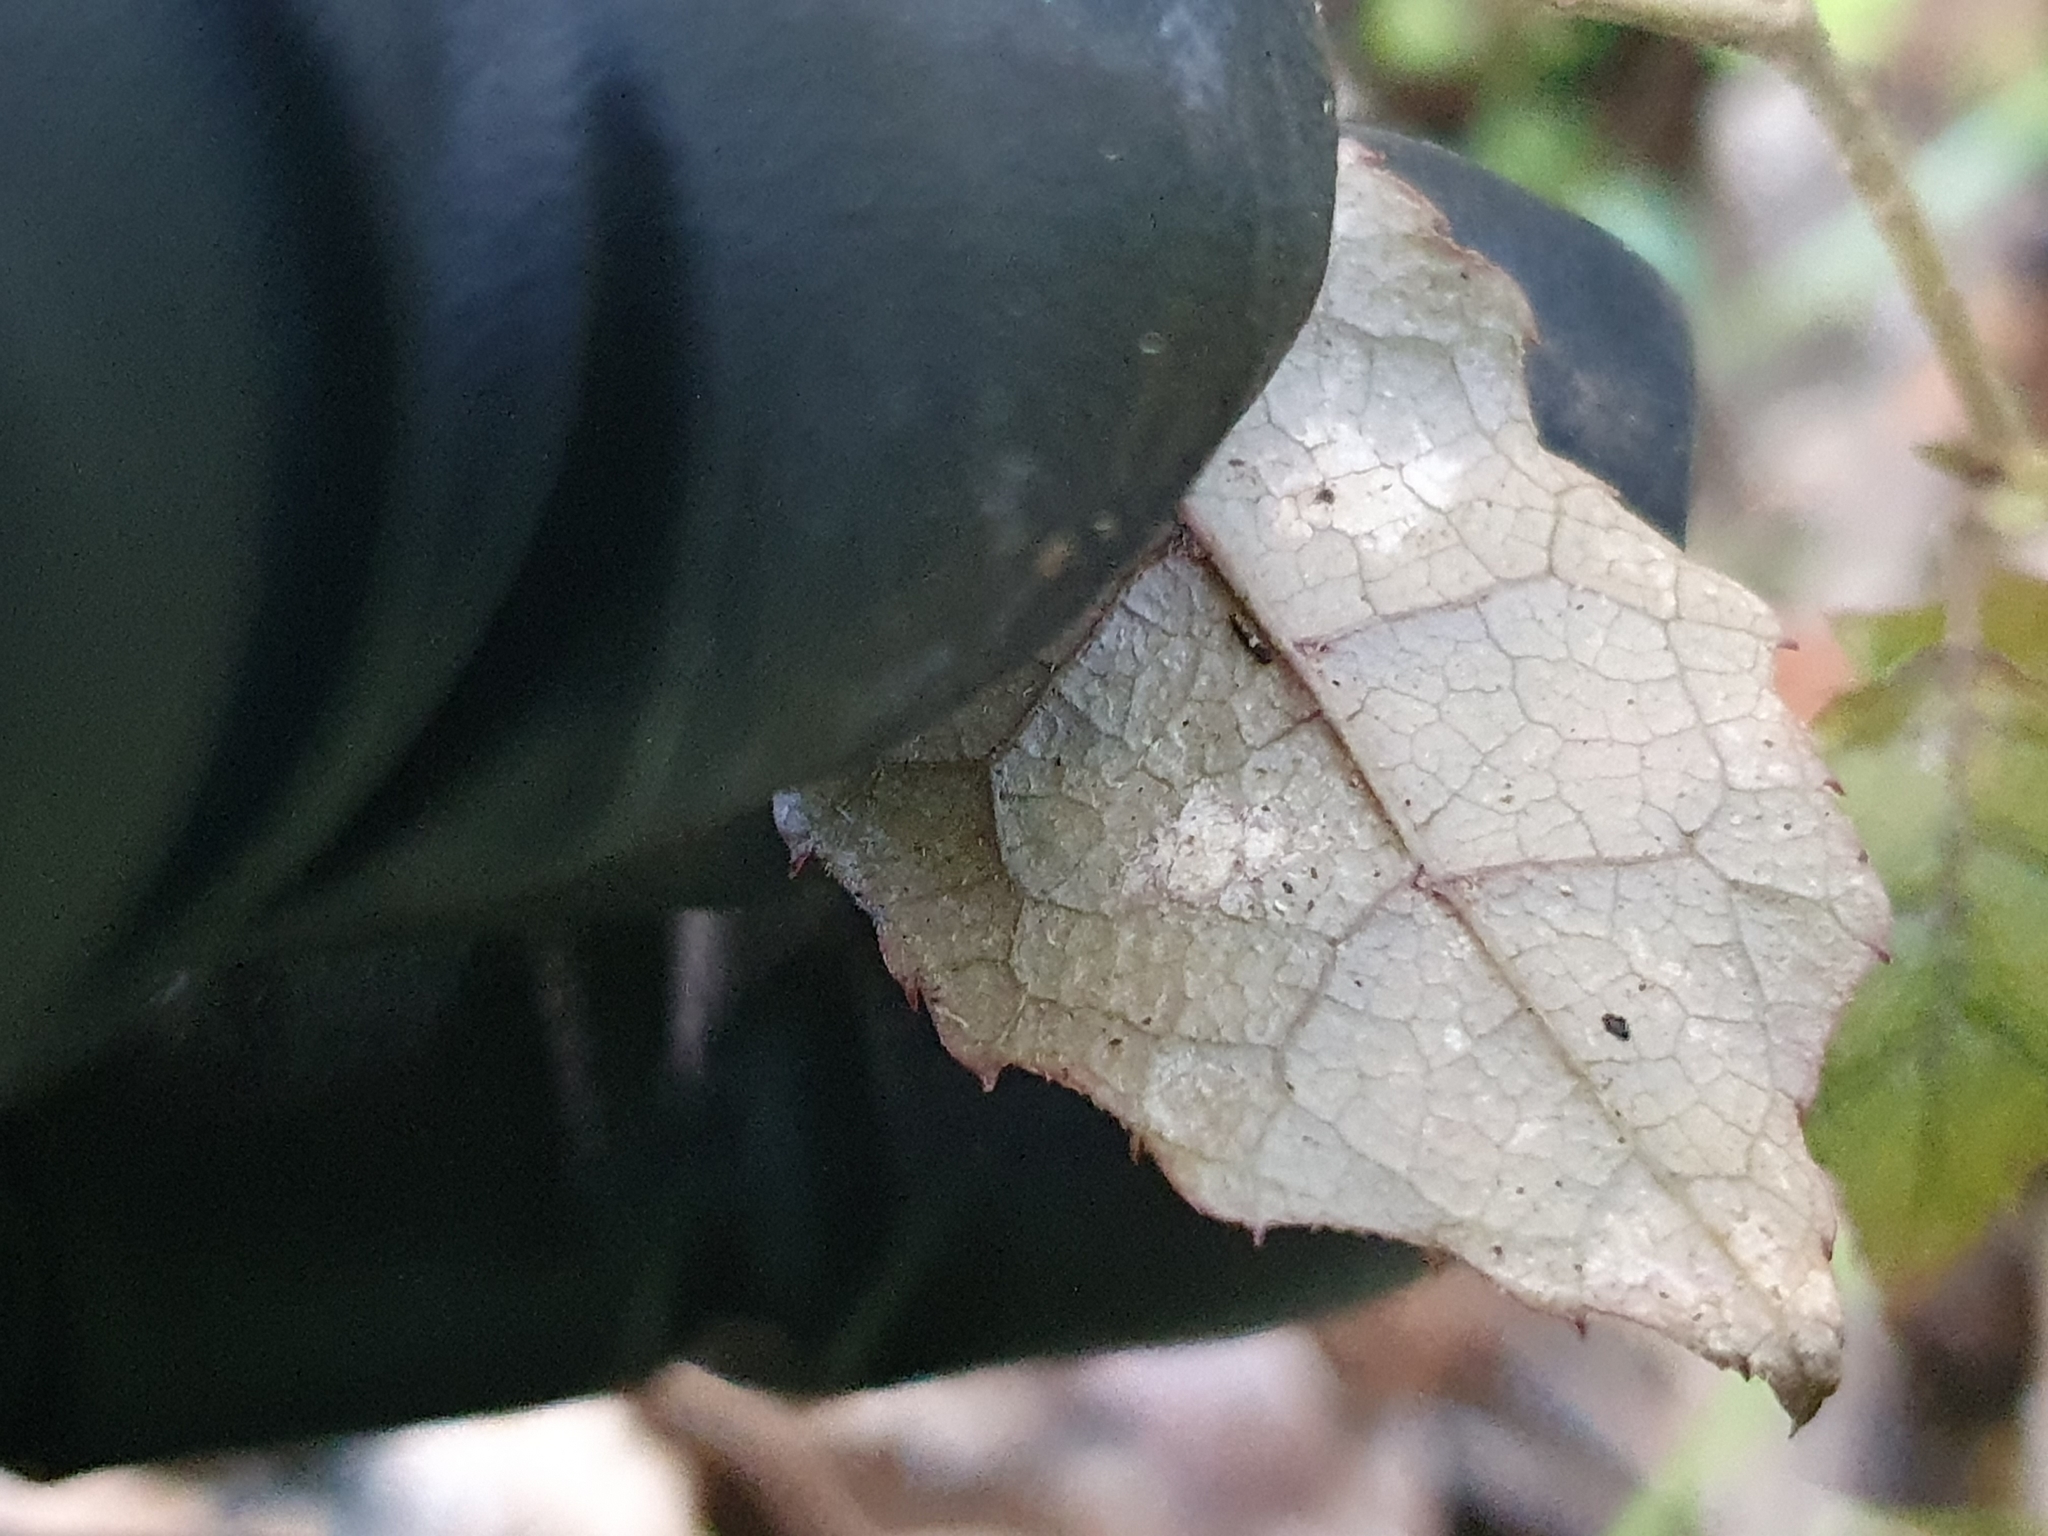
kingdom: Plantae
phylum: Tracheophyta
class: Magnoliopsida
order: Asterales
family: Rousseaceae
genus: Carpodetus
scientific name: Carpodetus serratus
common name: White mapau
